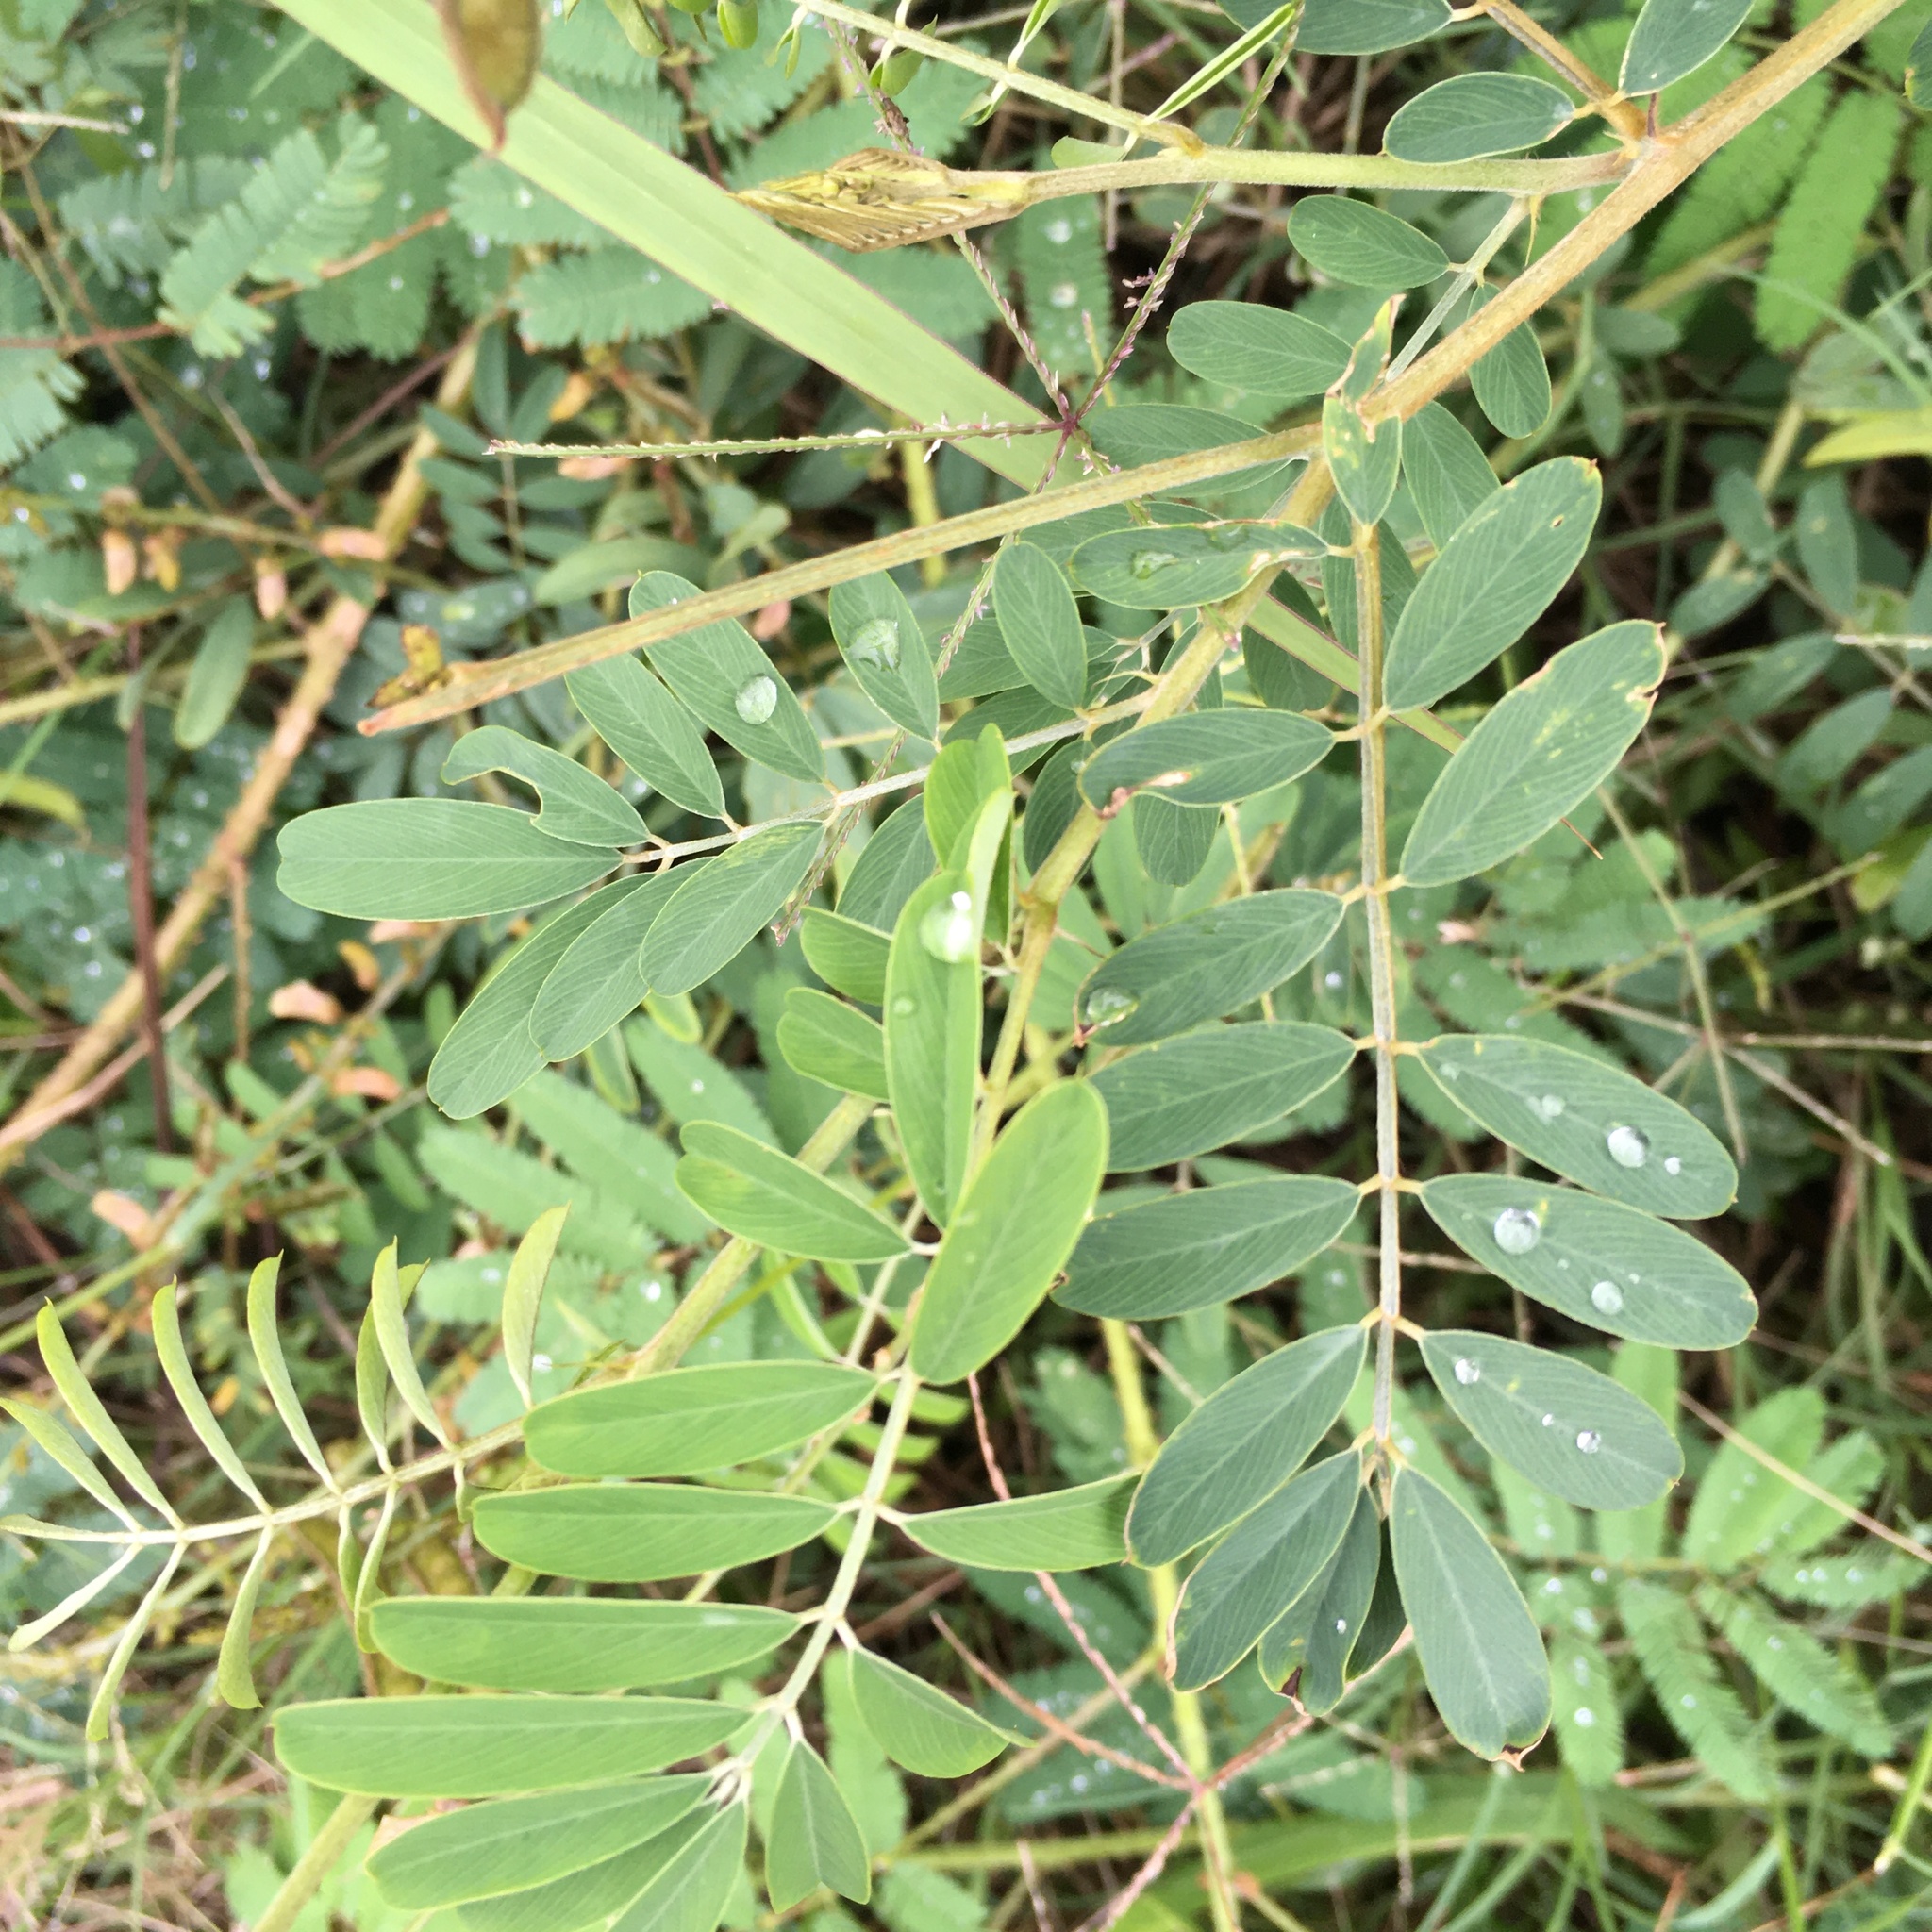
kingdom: Plantae
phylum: Tracheophyta
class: Magnoliopsida
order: Fabales
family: Fabaceae
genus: Tephrosia
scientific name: Tephrosia noctiflora
